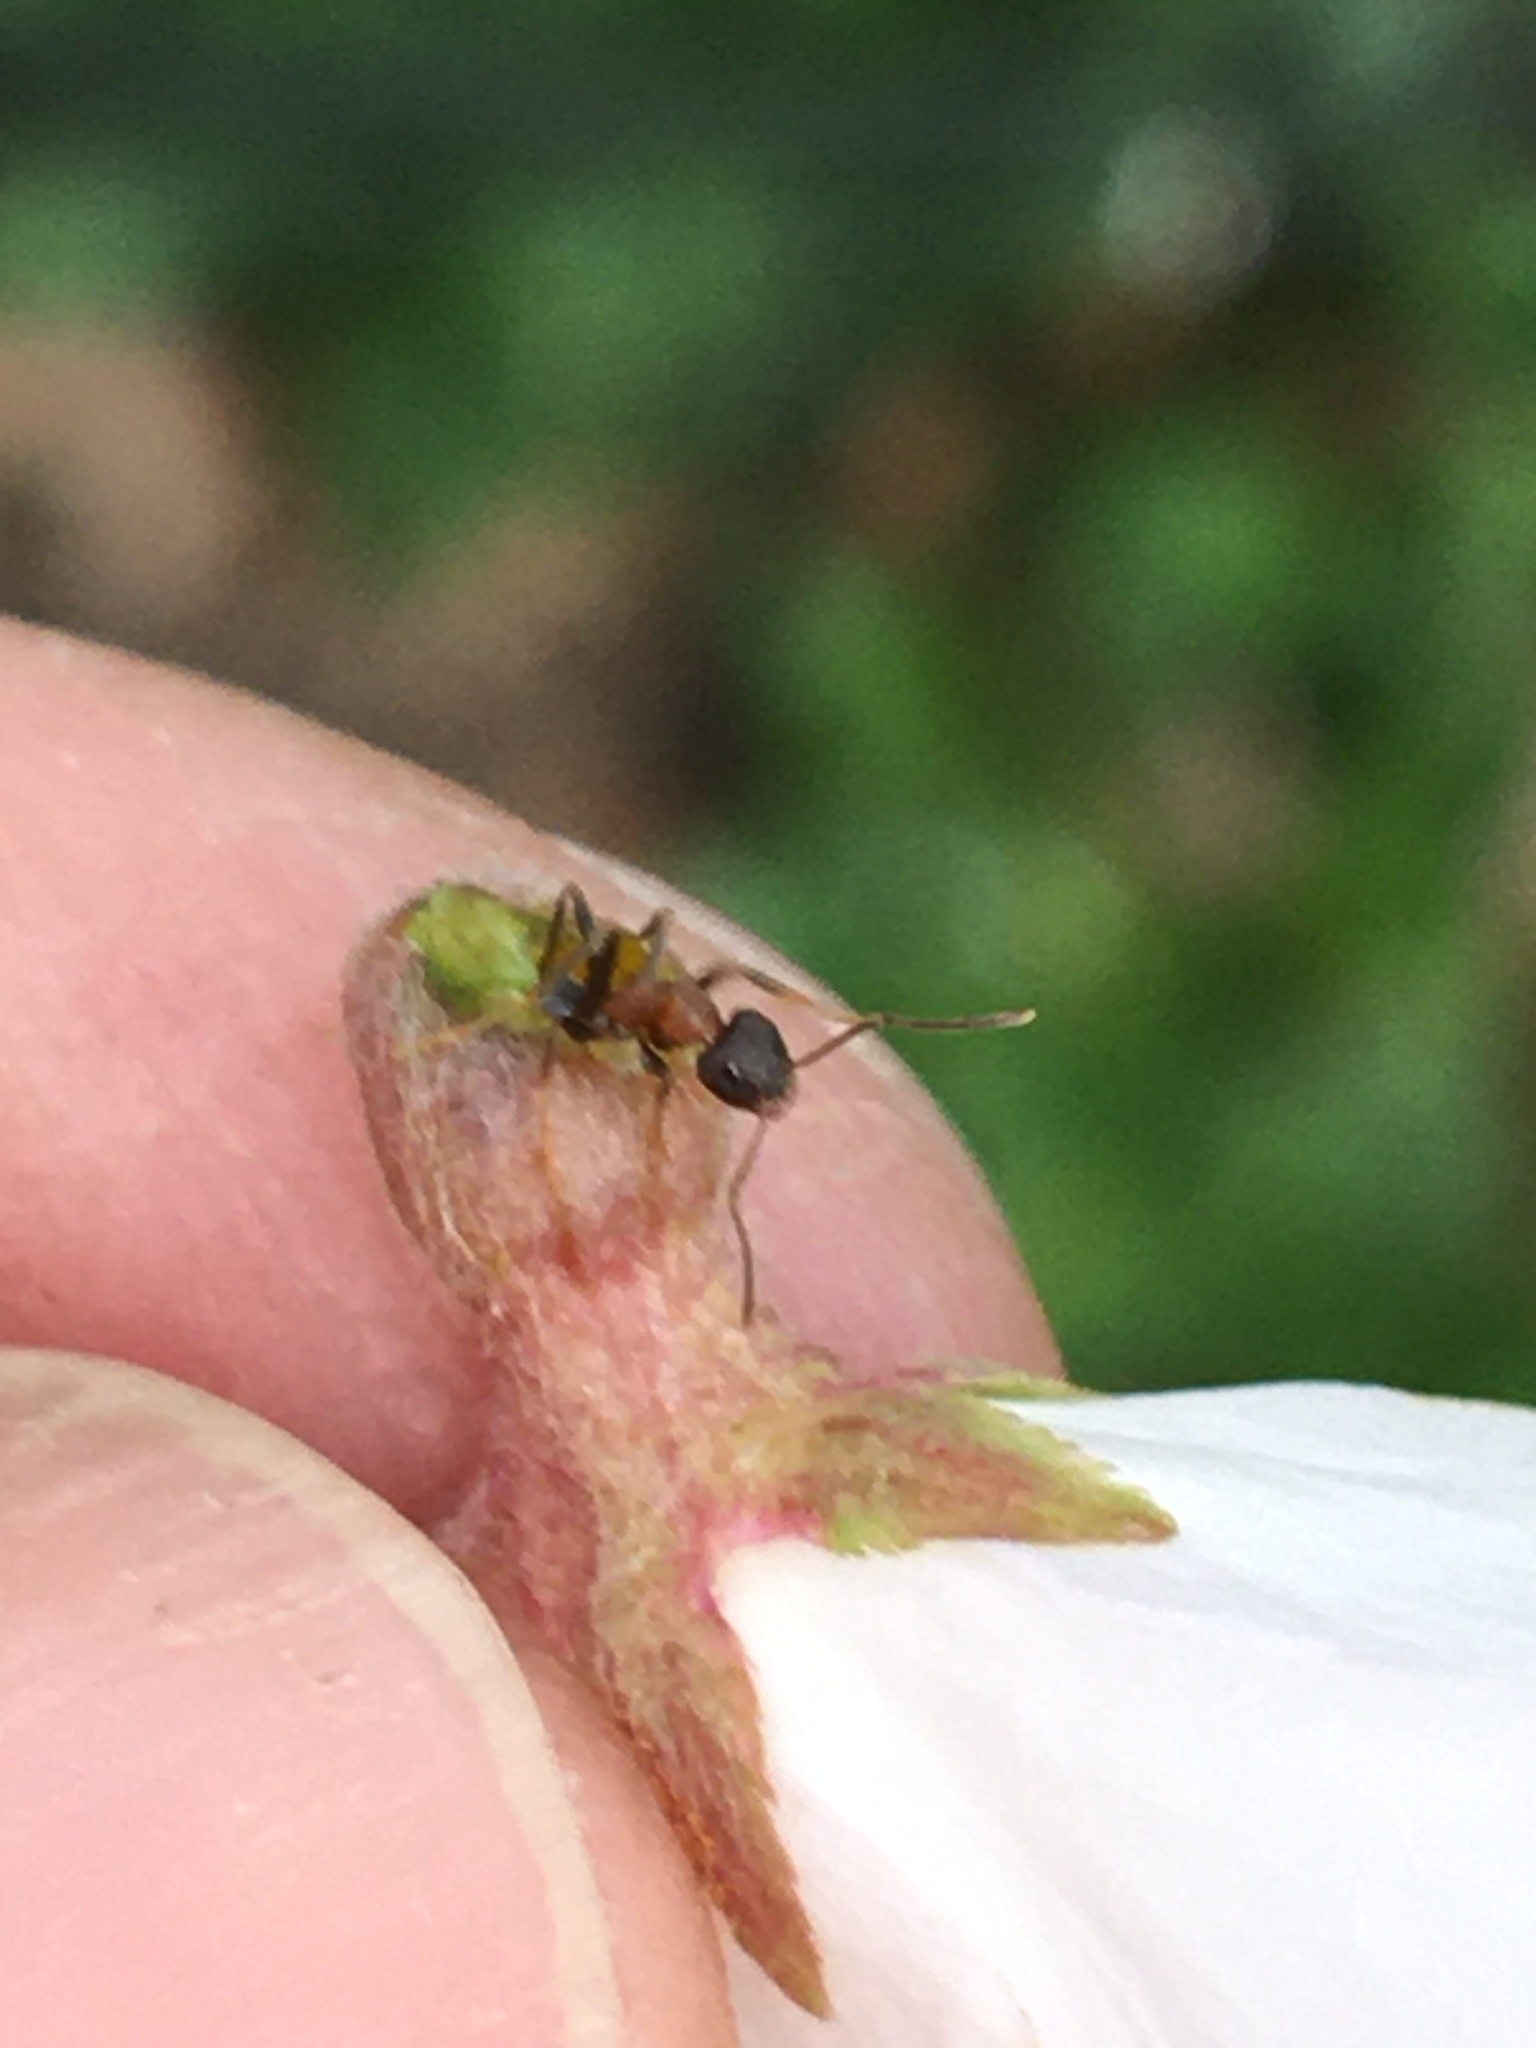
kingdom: Animalia
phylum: Arthropoda
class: Insecta
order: Hymenoptera
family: Formicidae
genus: Lasius
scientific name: Lasius emarginatus
